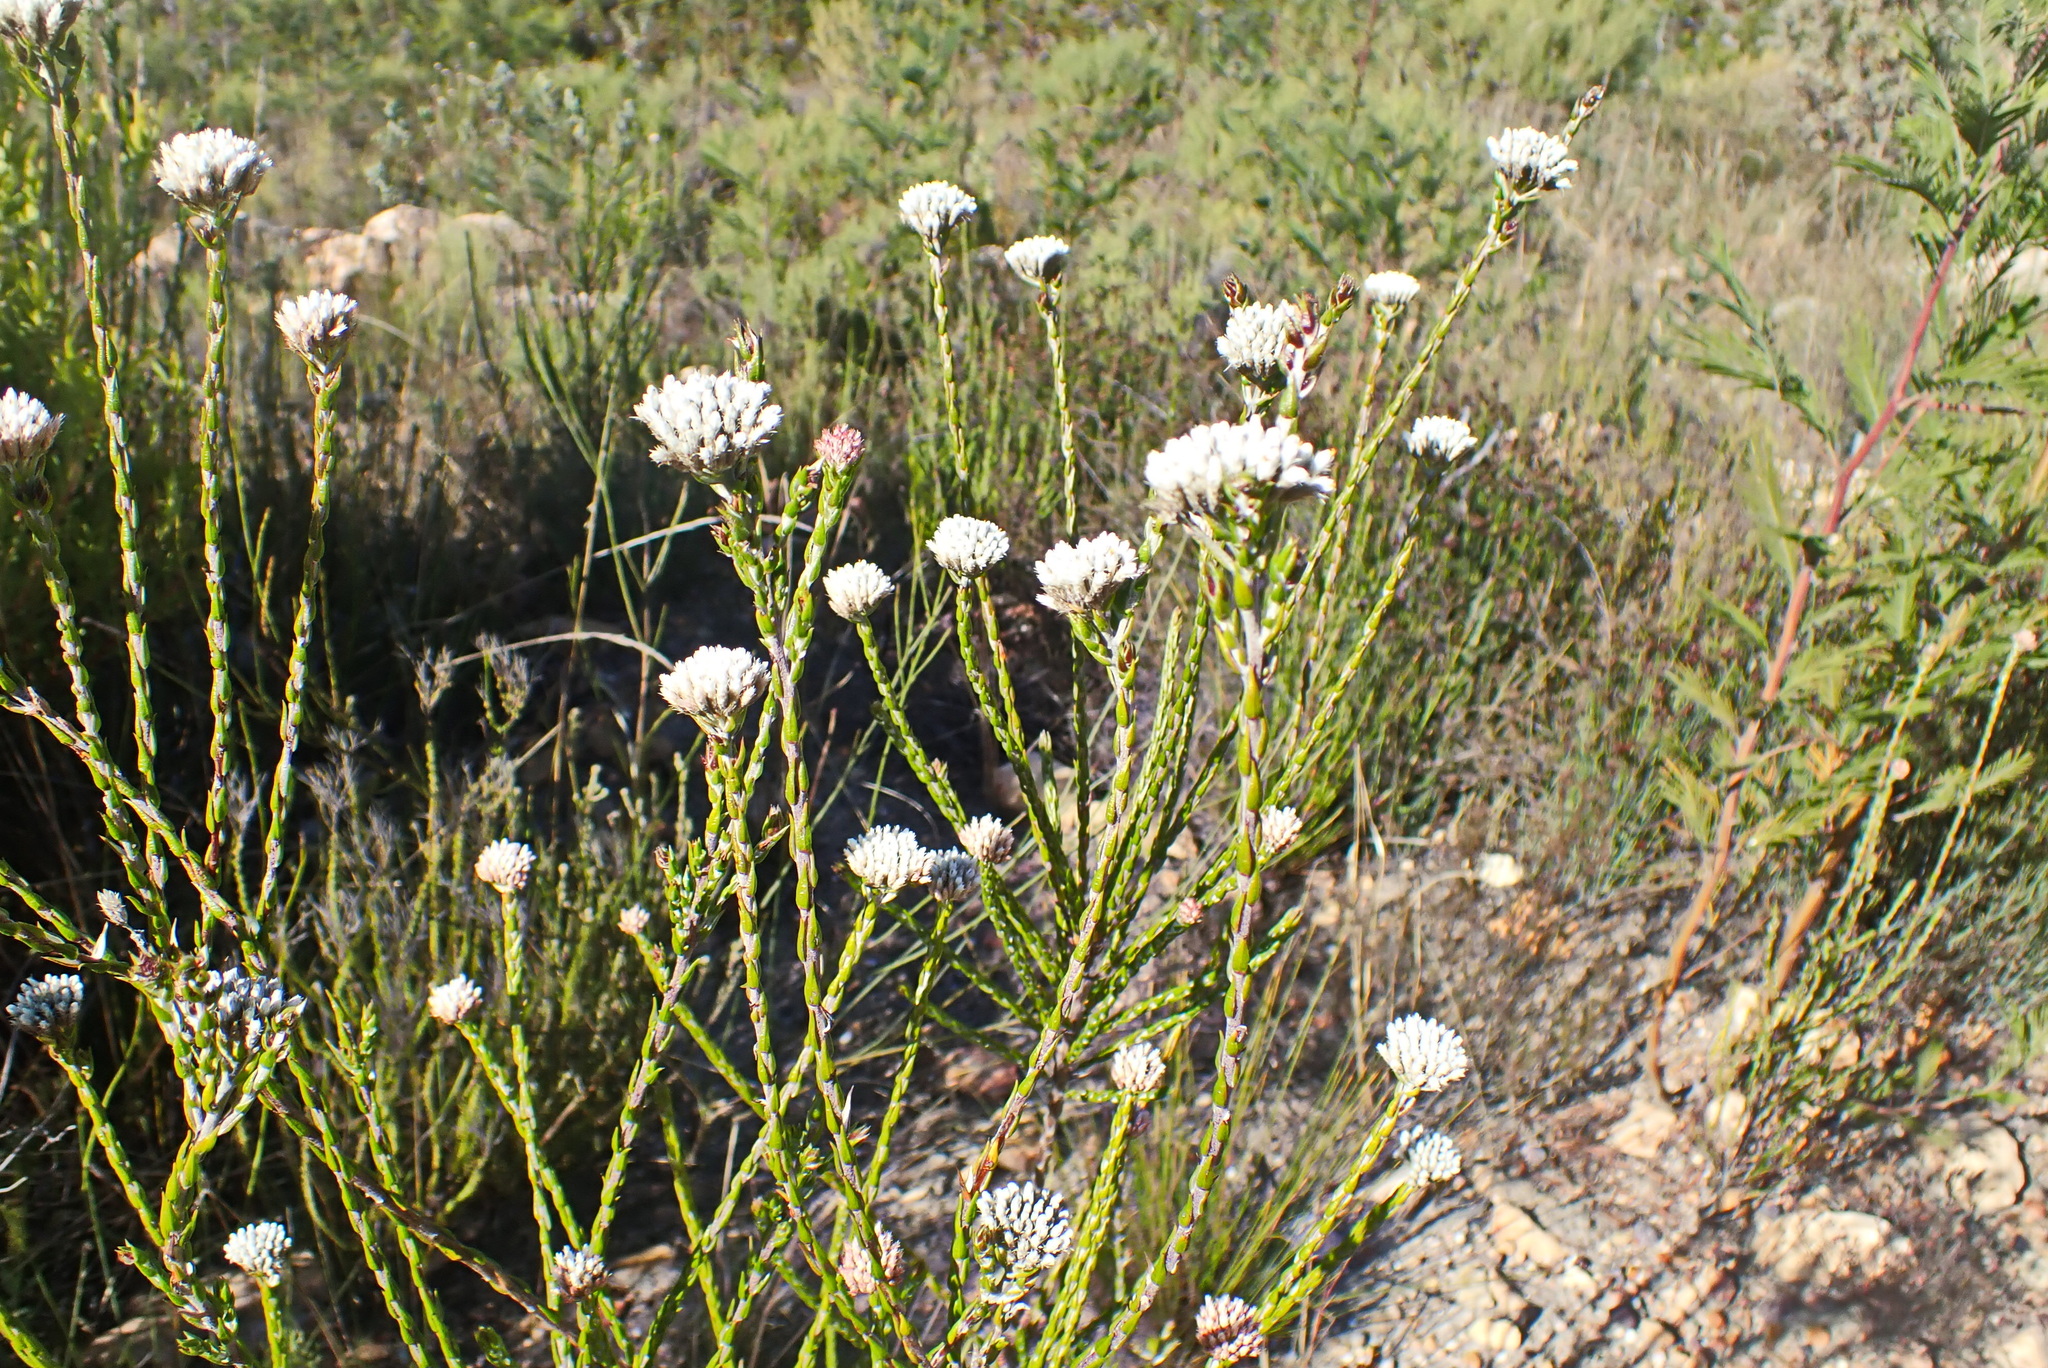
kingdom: Plantae
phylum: Tracheophyta
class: Magnoliopsida
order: Asterales
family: Asteraceae
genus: Metalasia
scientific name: Metalasia pulcherrima
